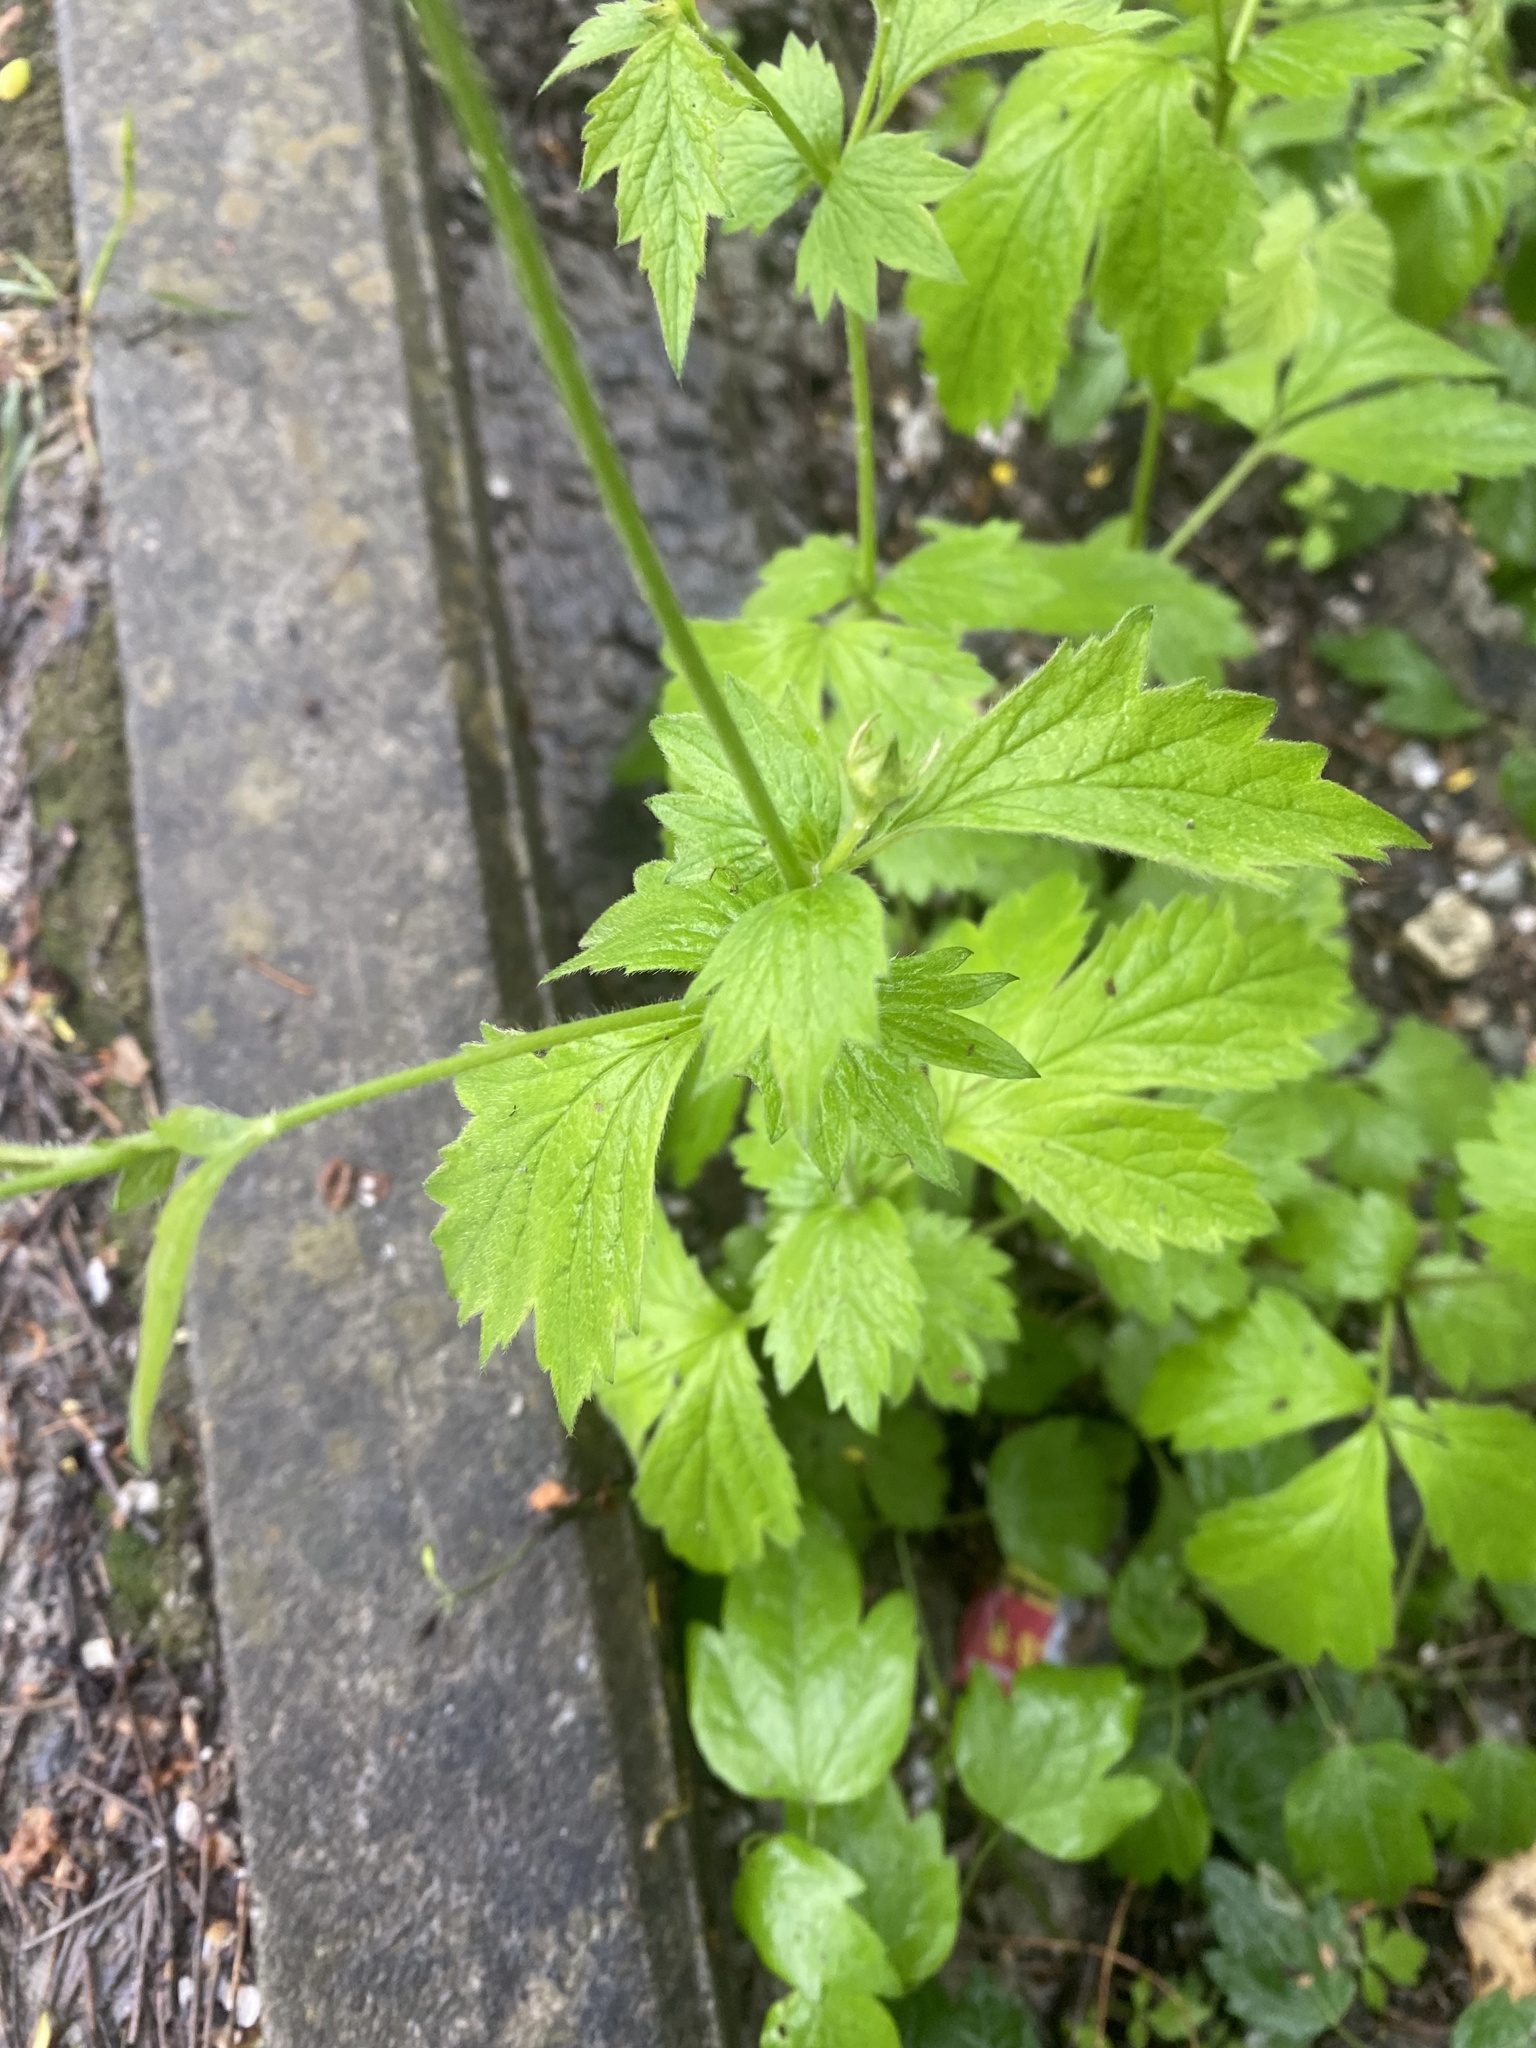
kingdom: Plantae
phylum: Tracheophyta
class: Magnoliopsida
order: Rosales
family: Rosaceae
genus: Geum
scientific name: Geum urbanum
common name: Wood avens
